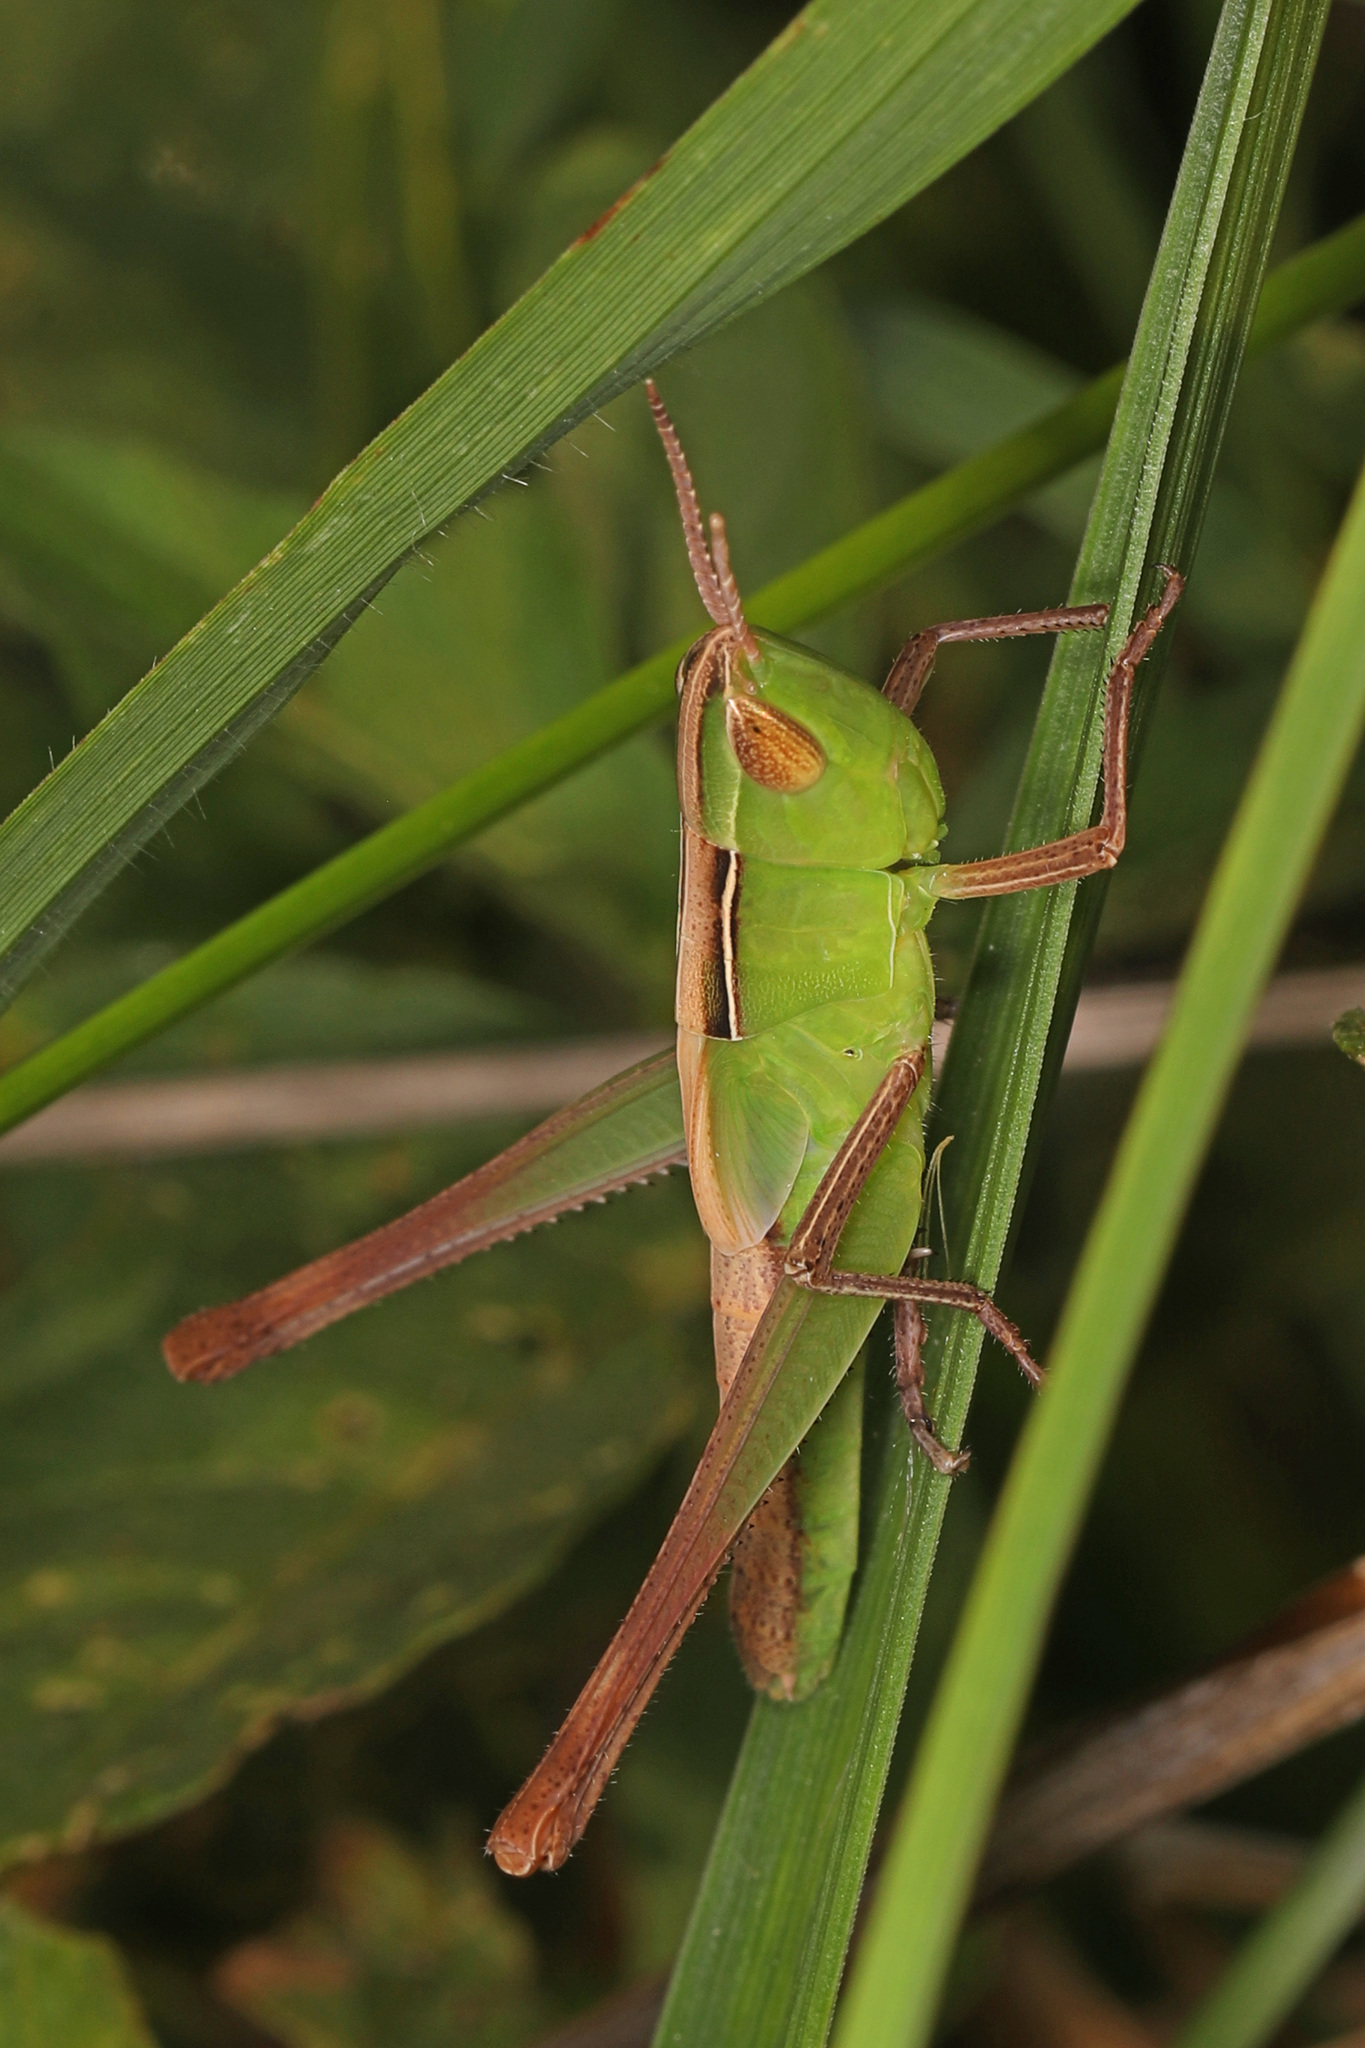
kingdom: Animalia
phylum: Arthropoda
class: Insecta
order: Orthoptera
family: Acrididae
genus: Syrbula
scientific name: Syrbula admirabilis
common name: Handsome grasshopper
